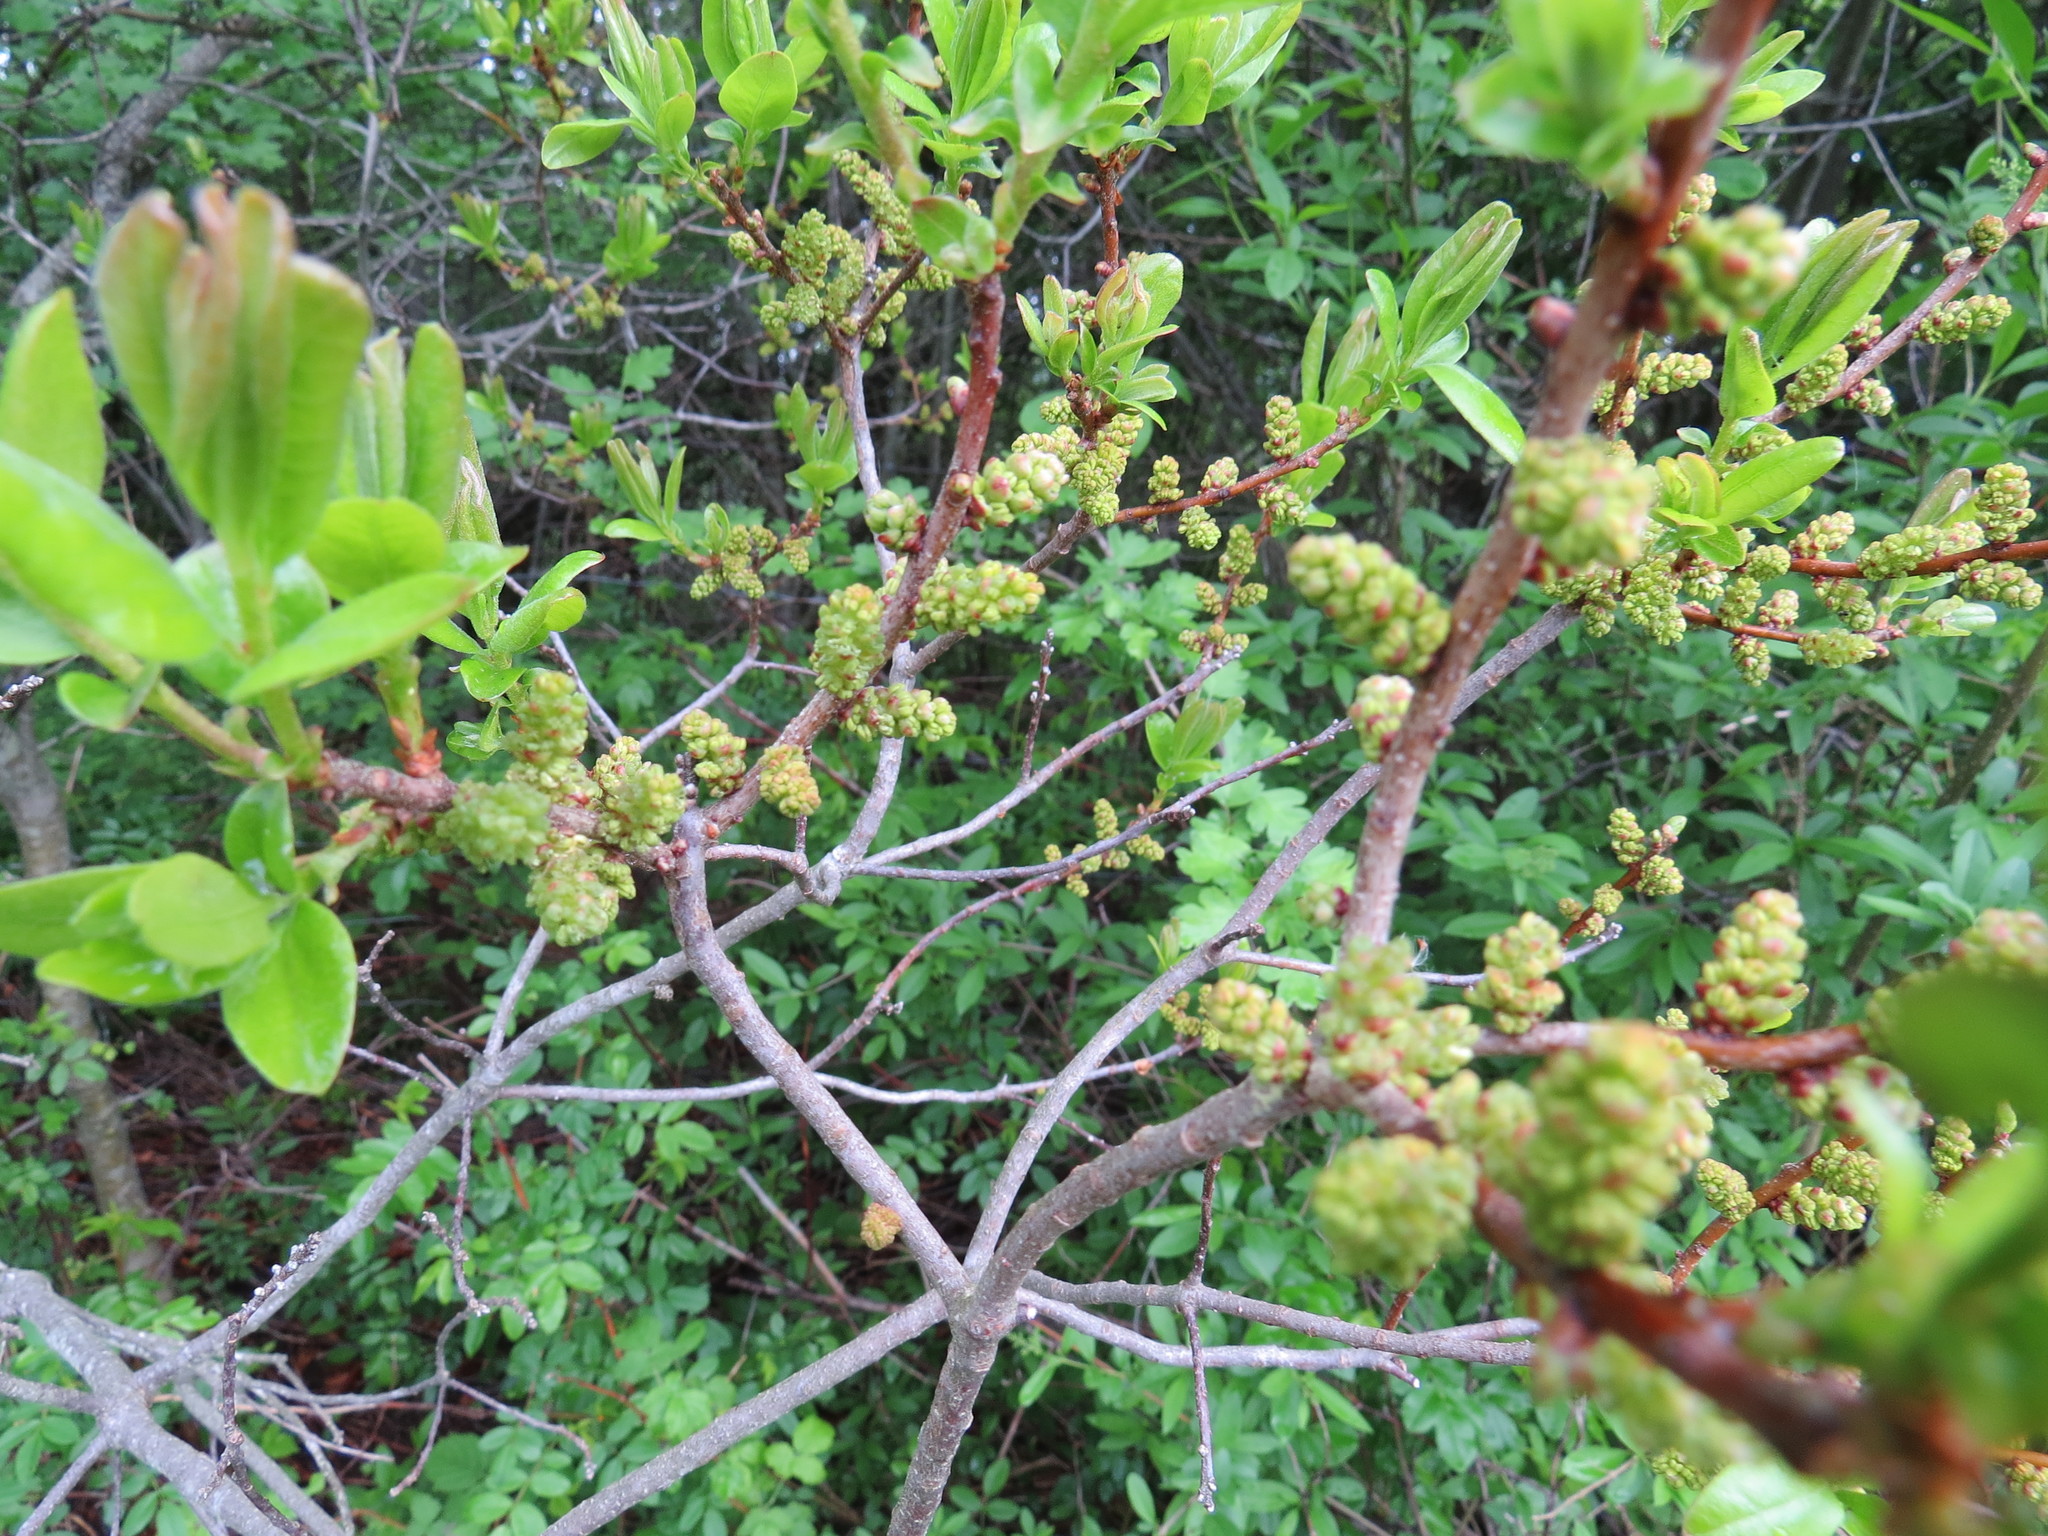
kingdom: Plantae
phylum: Tracheophyta
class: Magnoliopsida
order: Fagales
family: Myricaceae
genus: Morella
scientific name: Morella pensylvanica
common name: Northern bayberry
